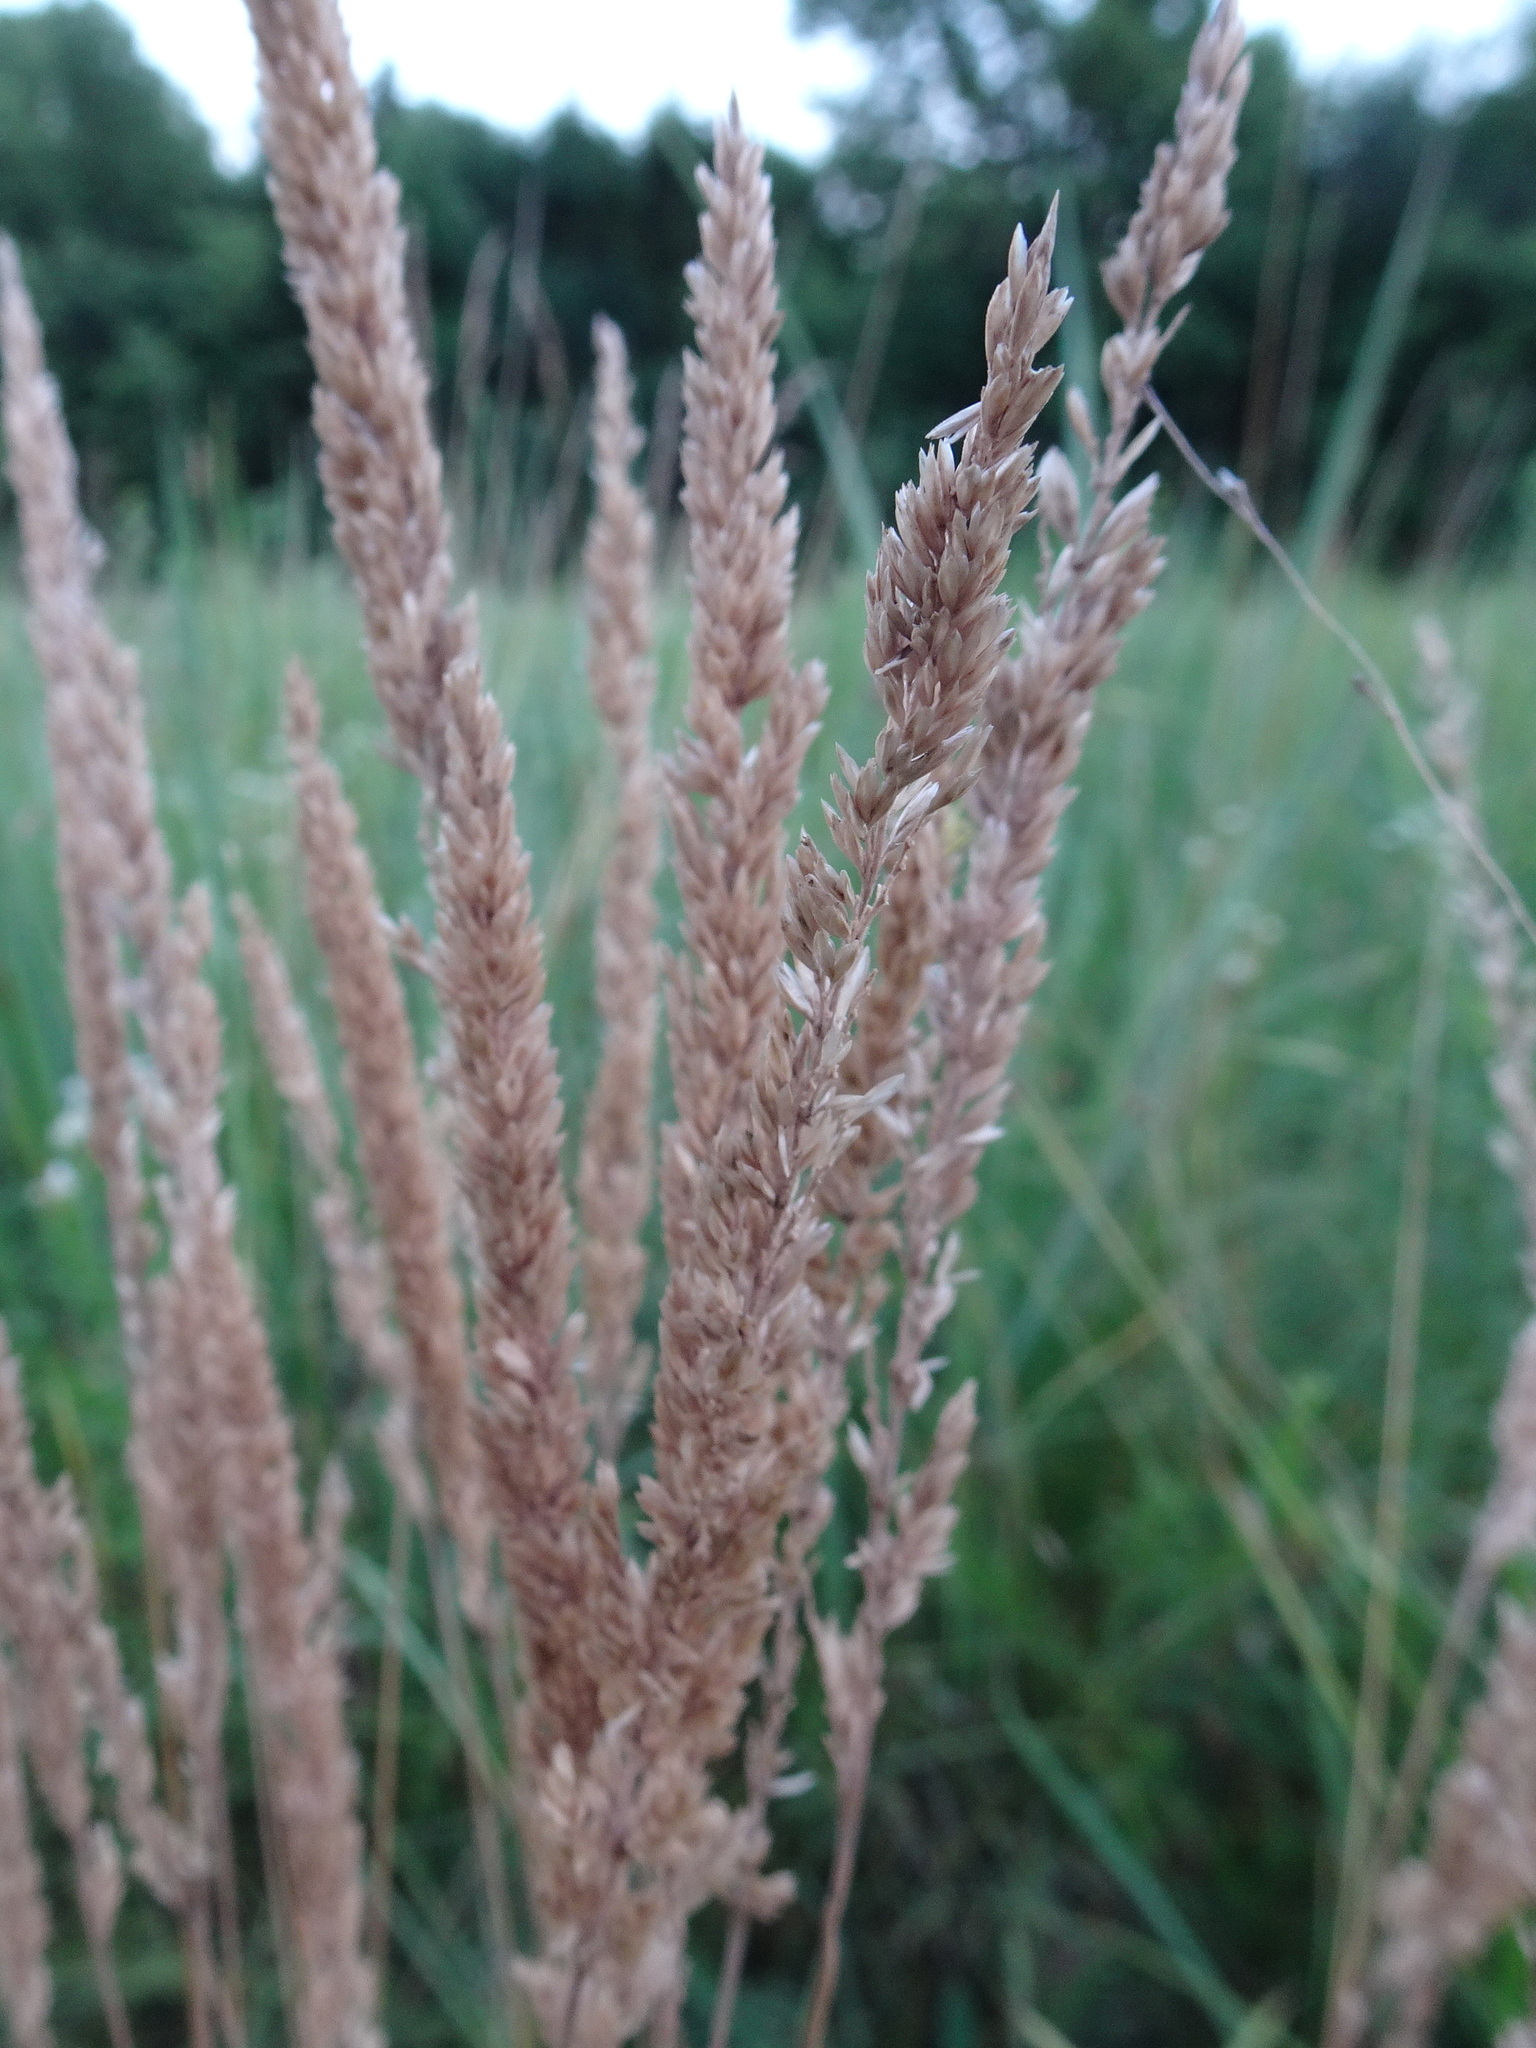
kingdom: Plantae
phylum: Tracheophyta
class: Liliopsida
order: Poales
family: Poaceae
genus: Koeleria
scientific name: Koeleria macrantha
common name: Crested hair-grass
